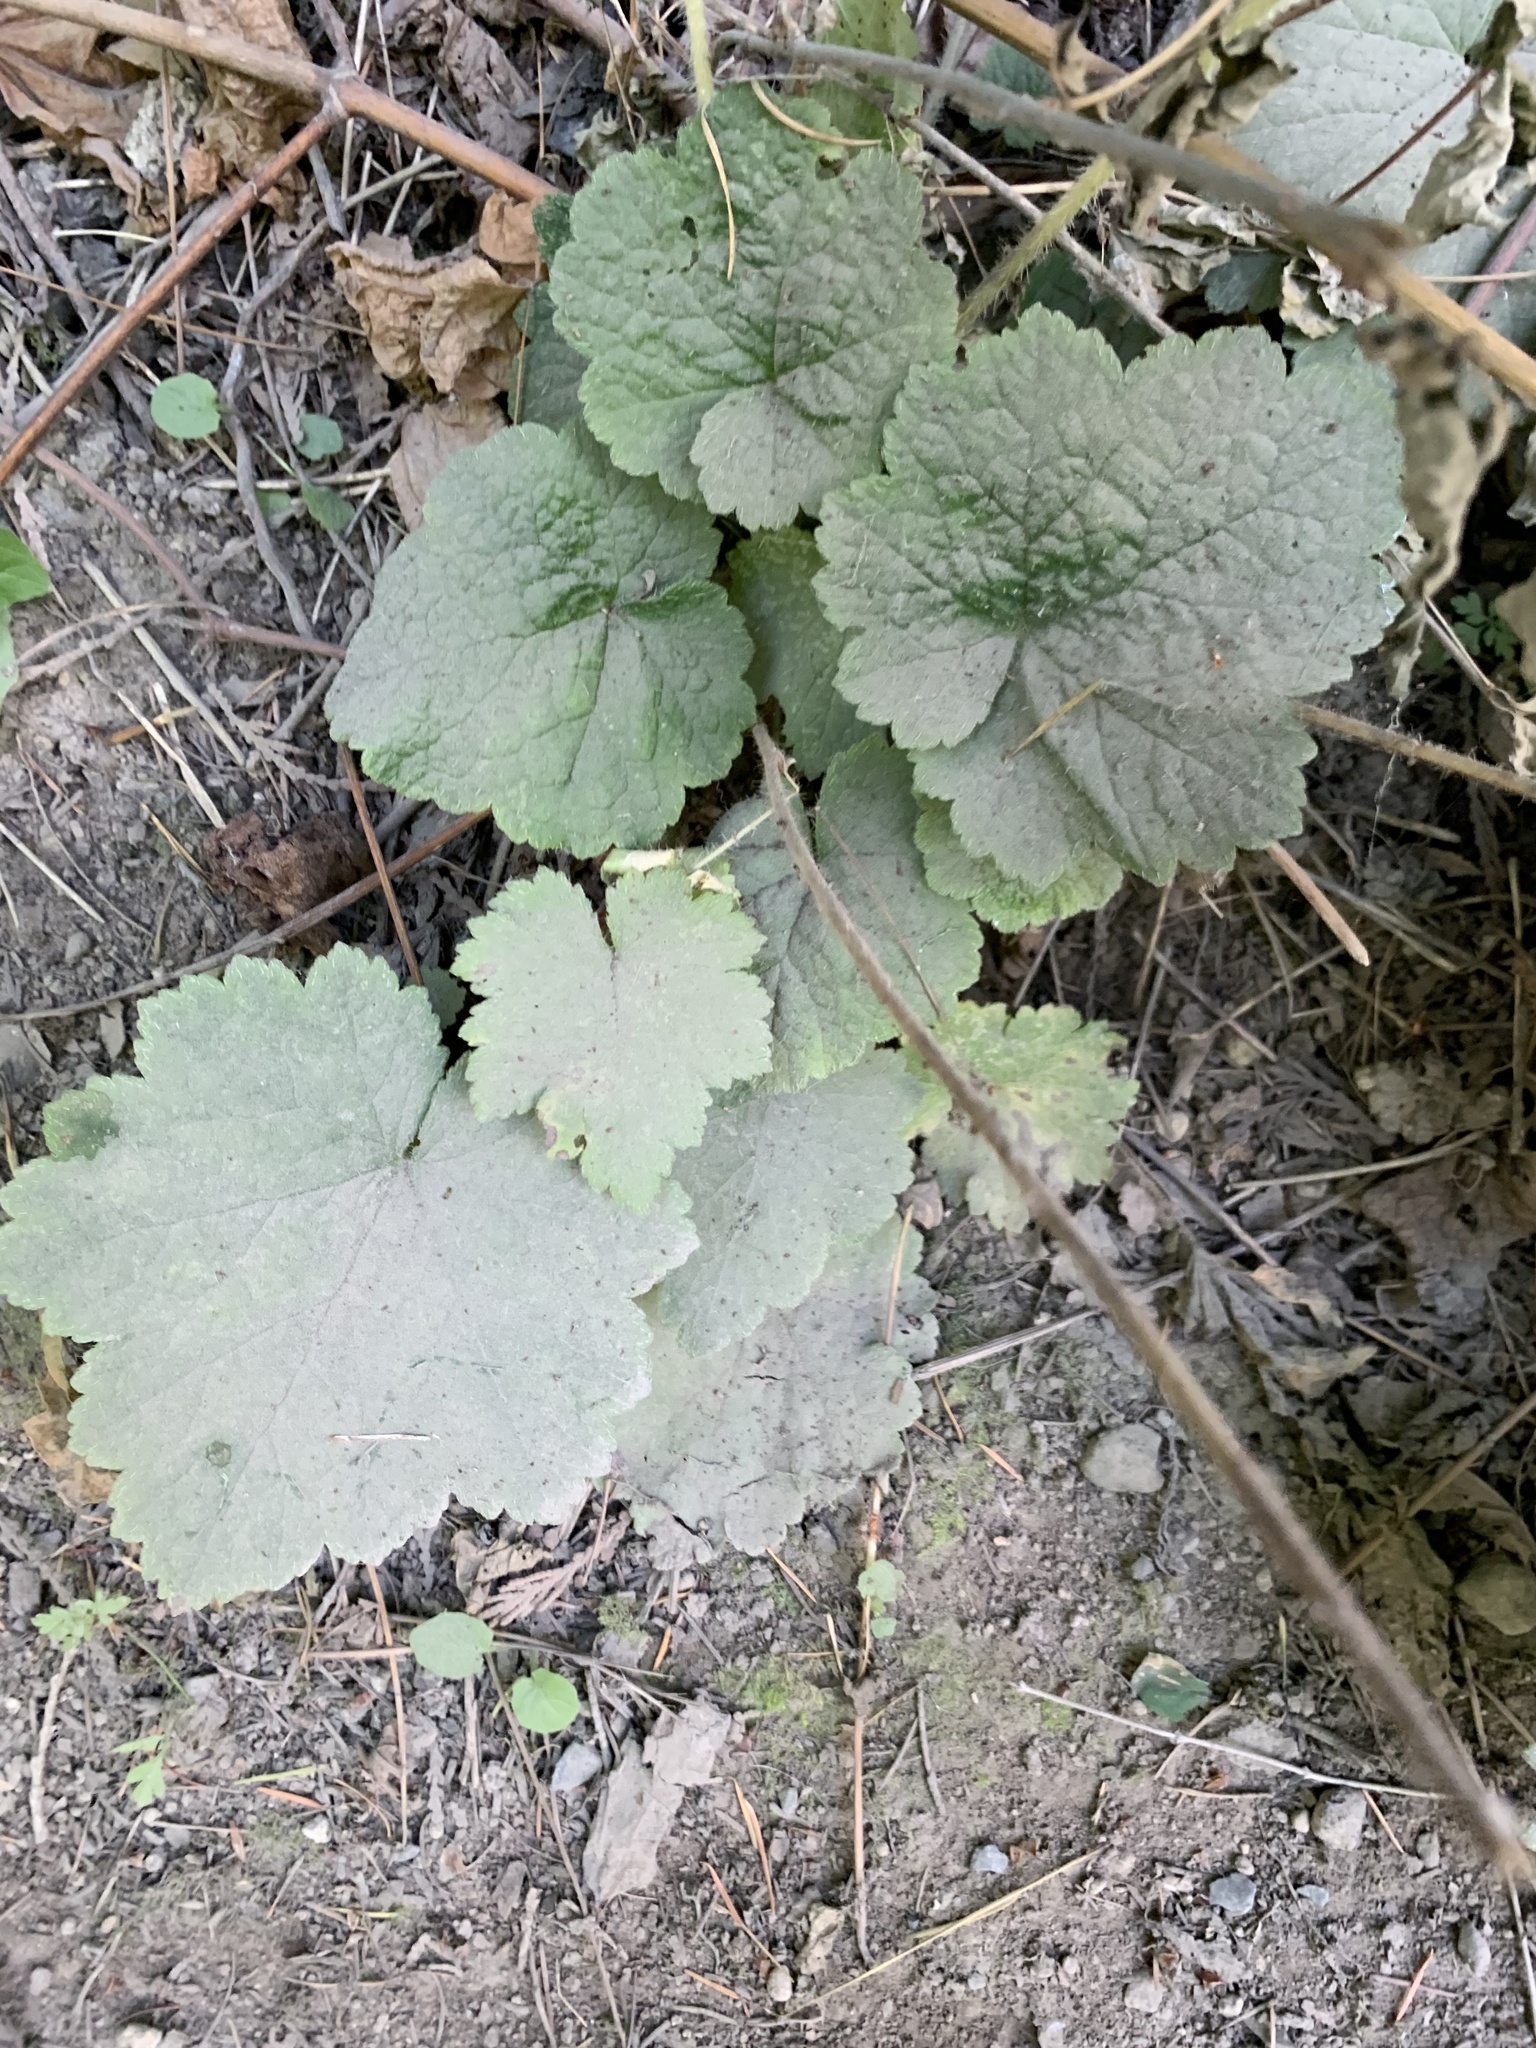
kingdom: Plantae
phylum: Tracheophyta
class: Magnoliopsida
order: Saxifragales
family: Saxifragaceae
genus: Tellima
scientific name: Tellima grandiflora
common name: Fringecups
